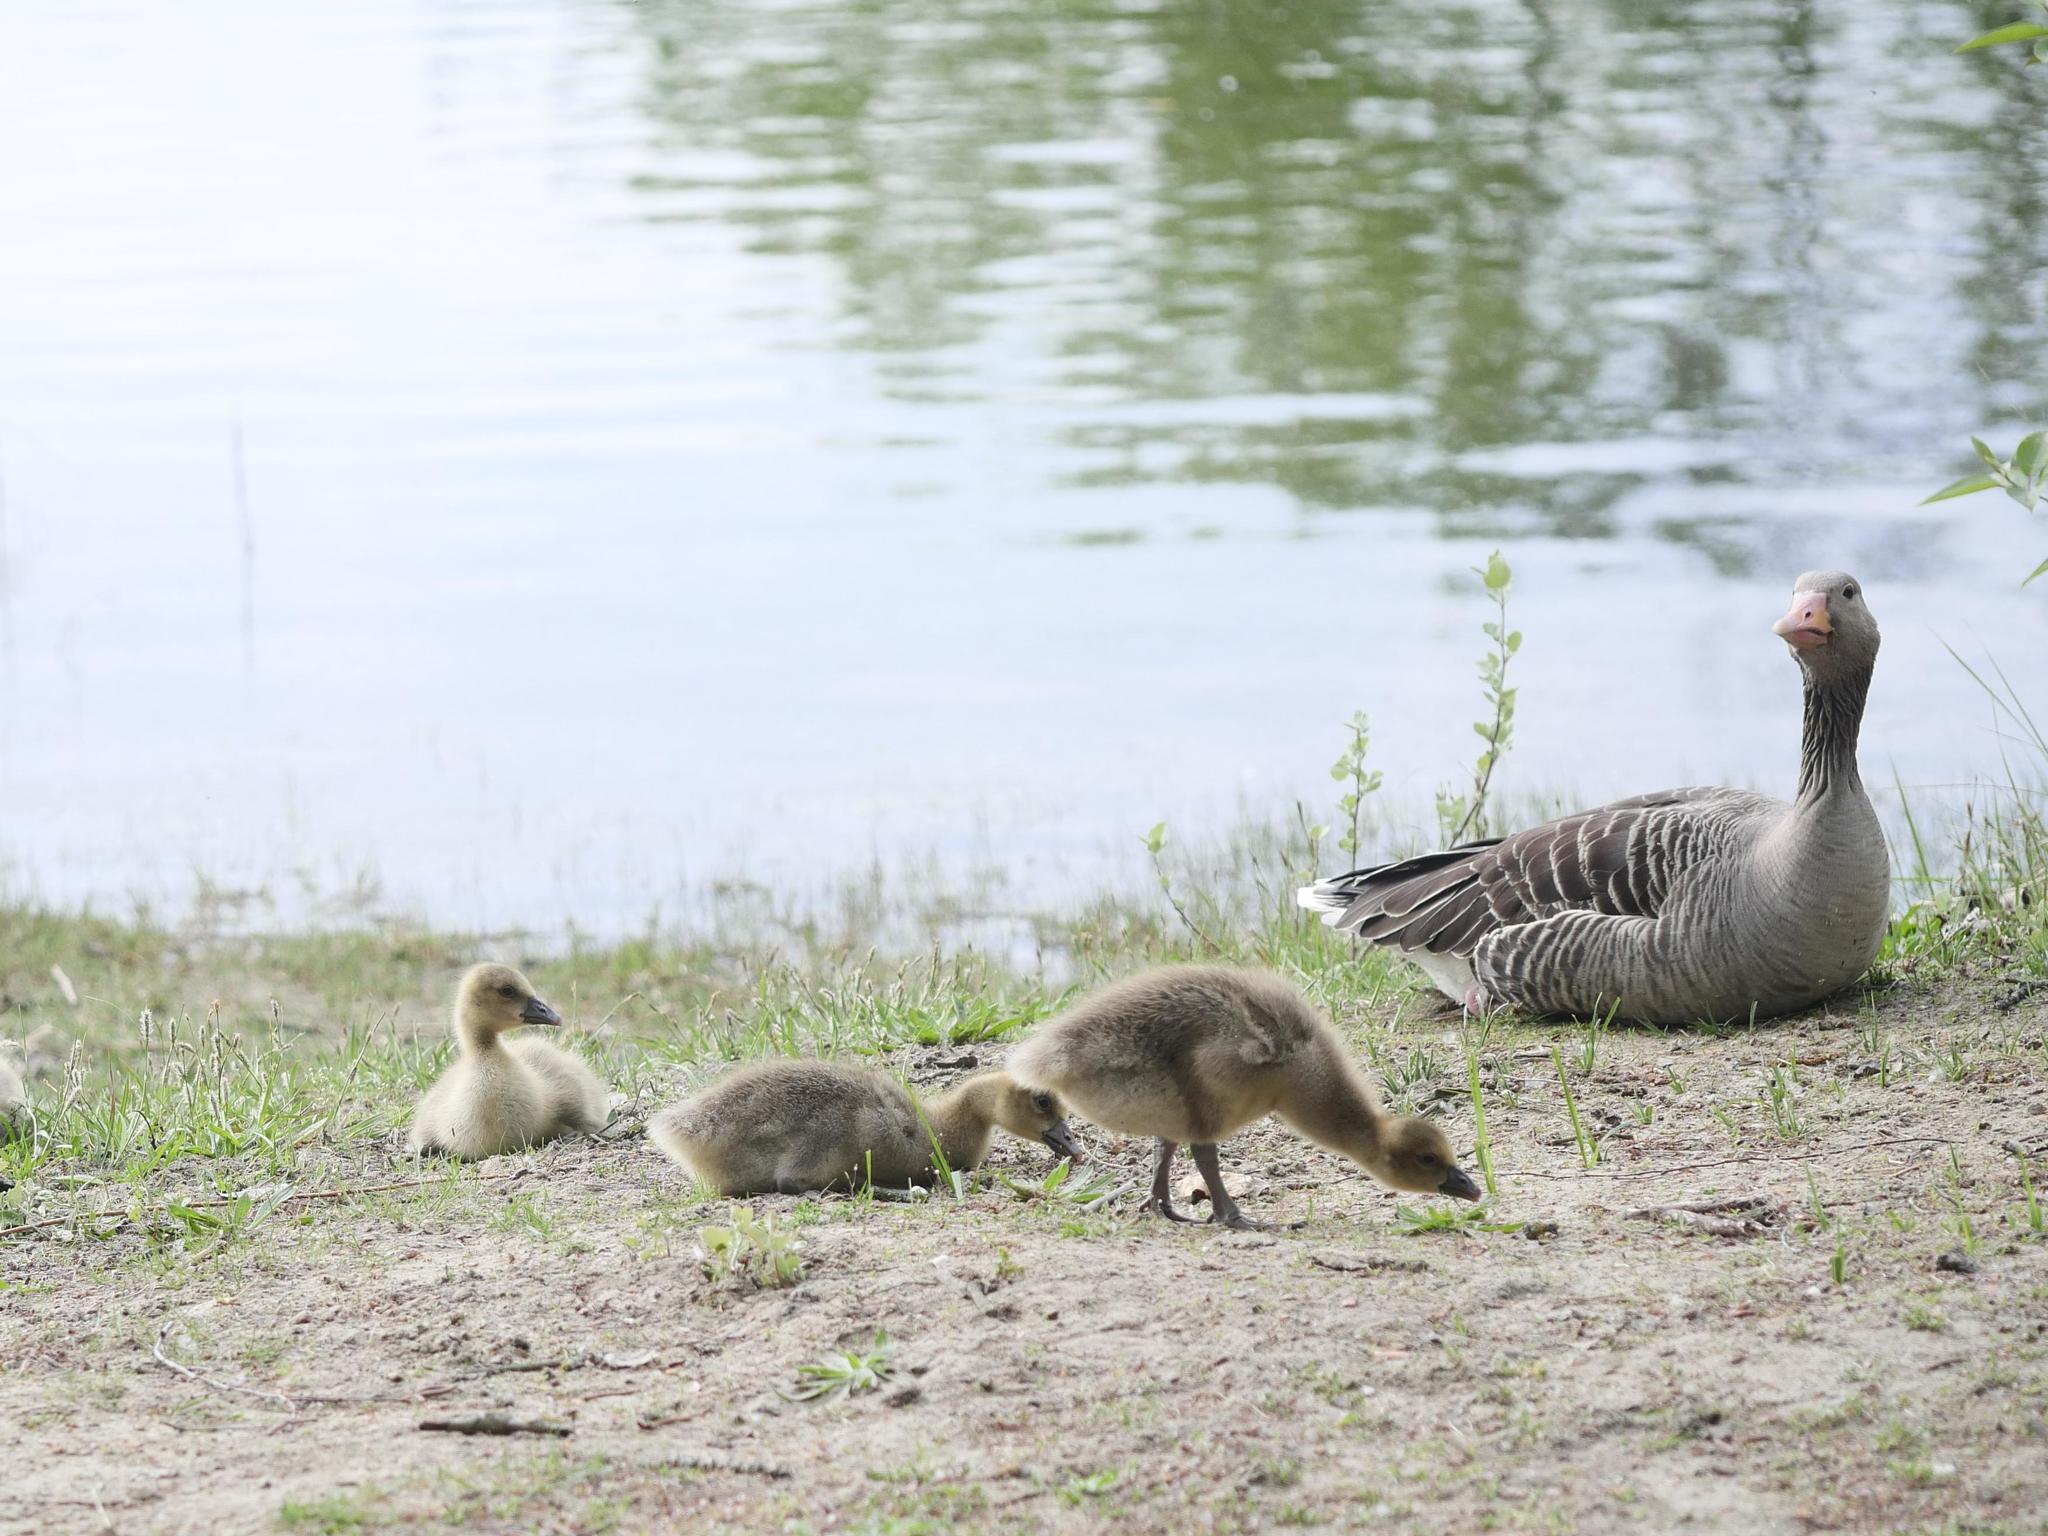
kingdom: Animalia
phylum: Chordata
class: Aves
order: Anseriformes
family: Anatidae
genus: Anser
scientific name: Anser anser
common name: Greylag goose
